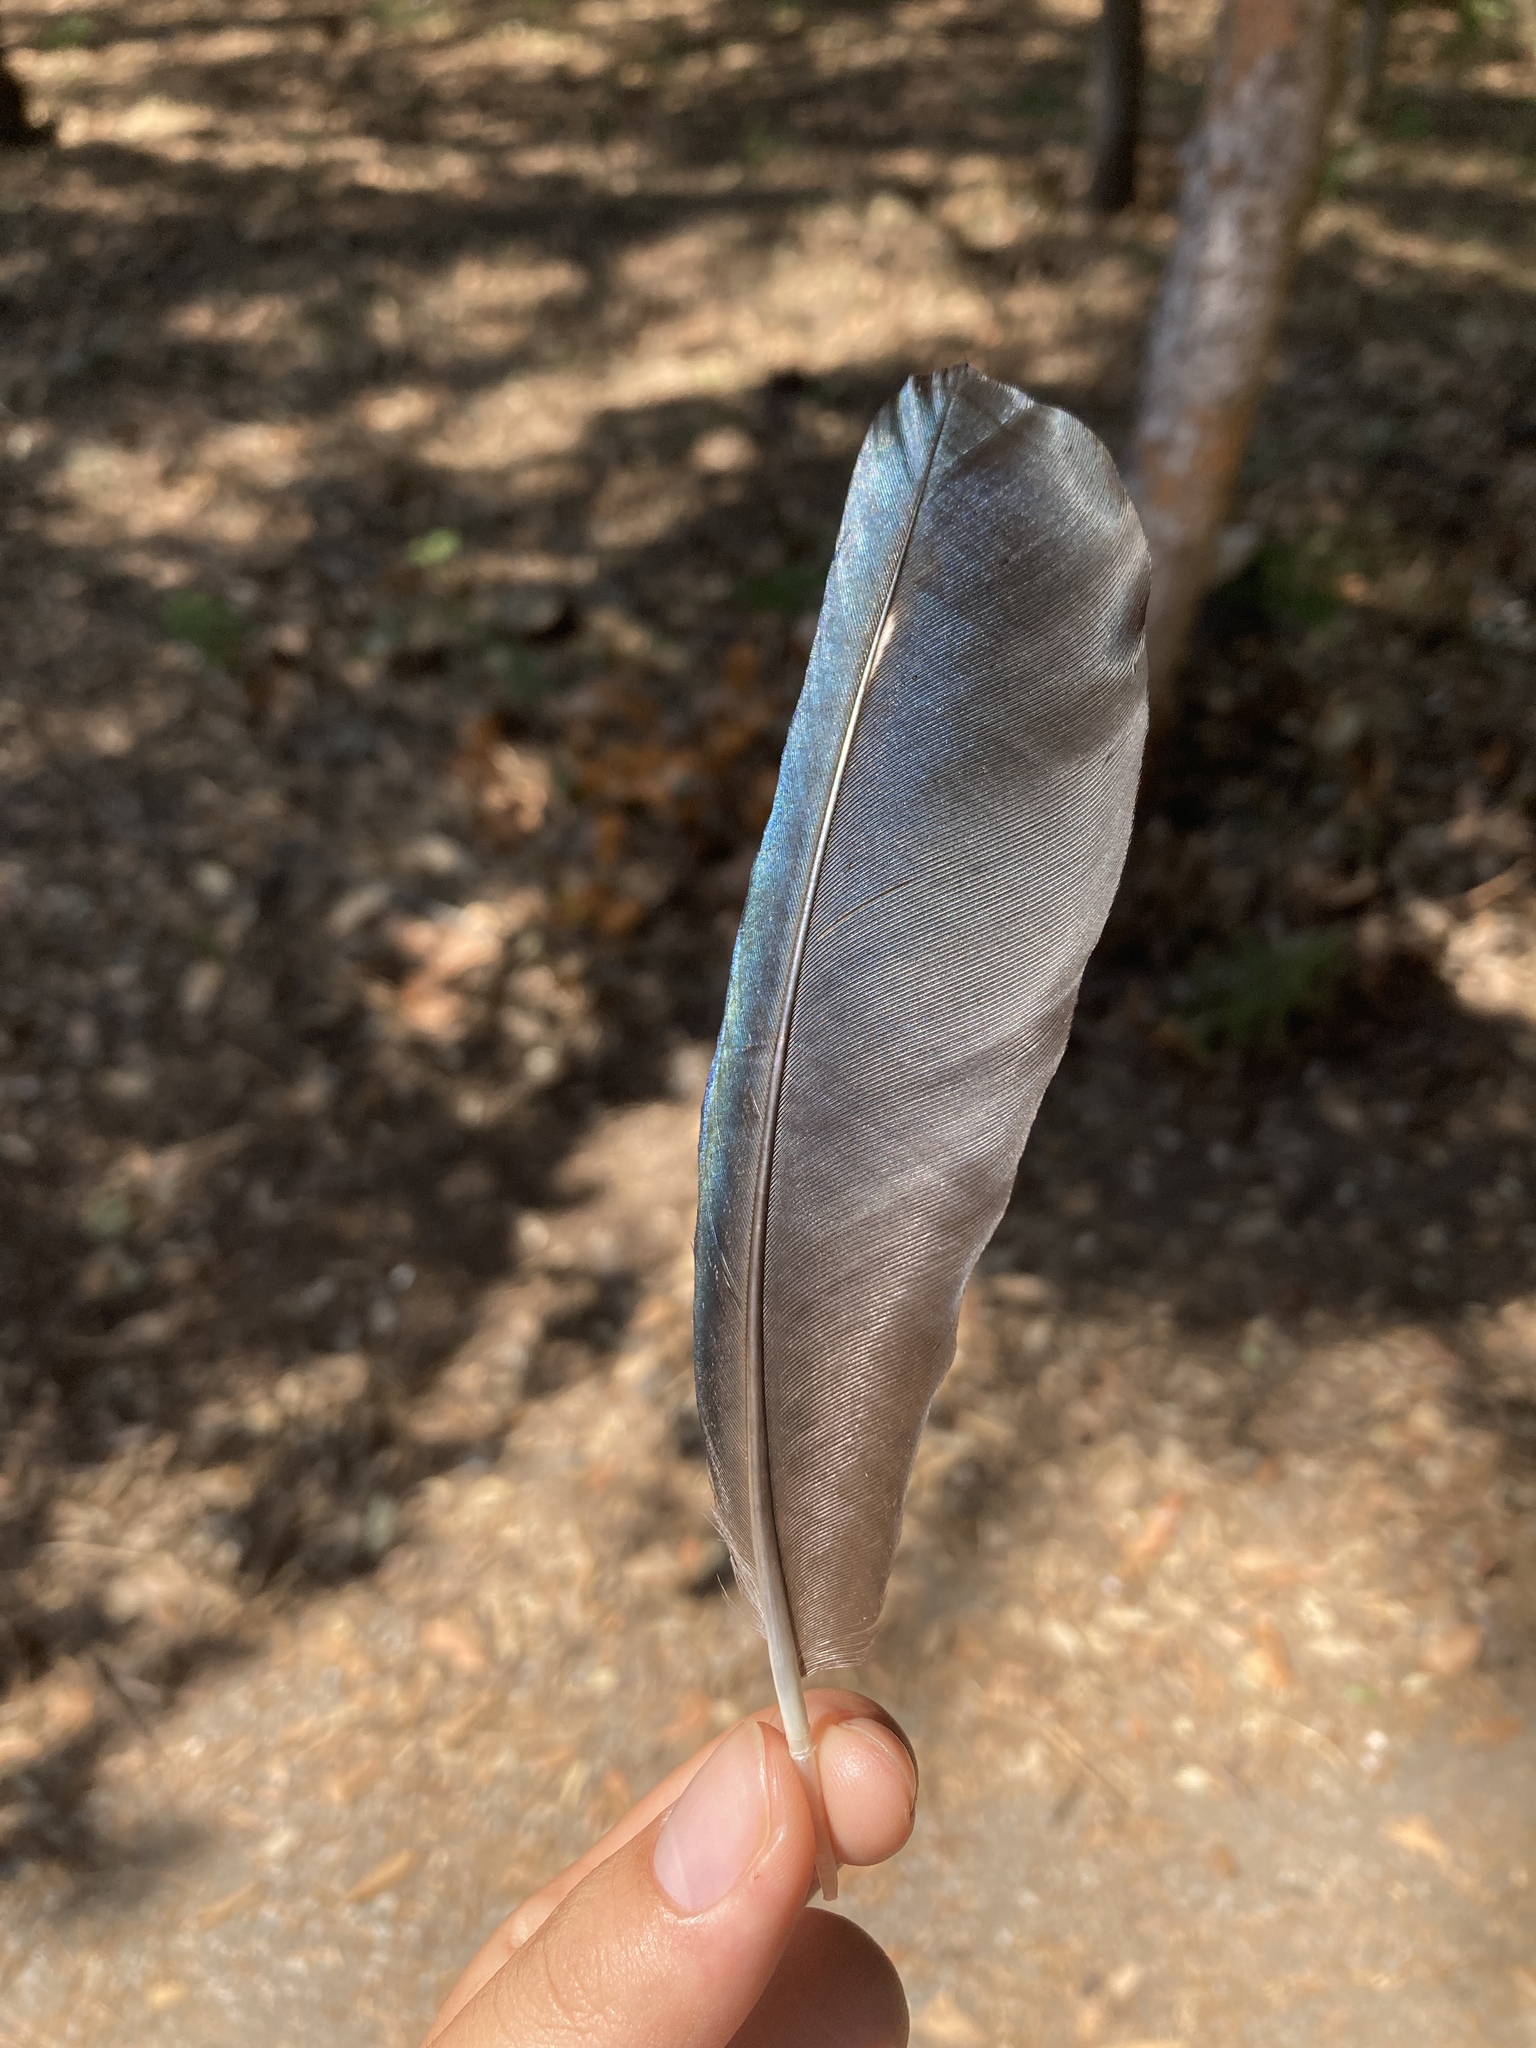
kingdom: Animalia
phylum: Chordata
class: Aves
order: Passeriformes
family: Corvidae
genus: Pica
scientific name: Pica pica
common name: Eurasian magpie
